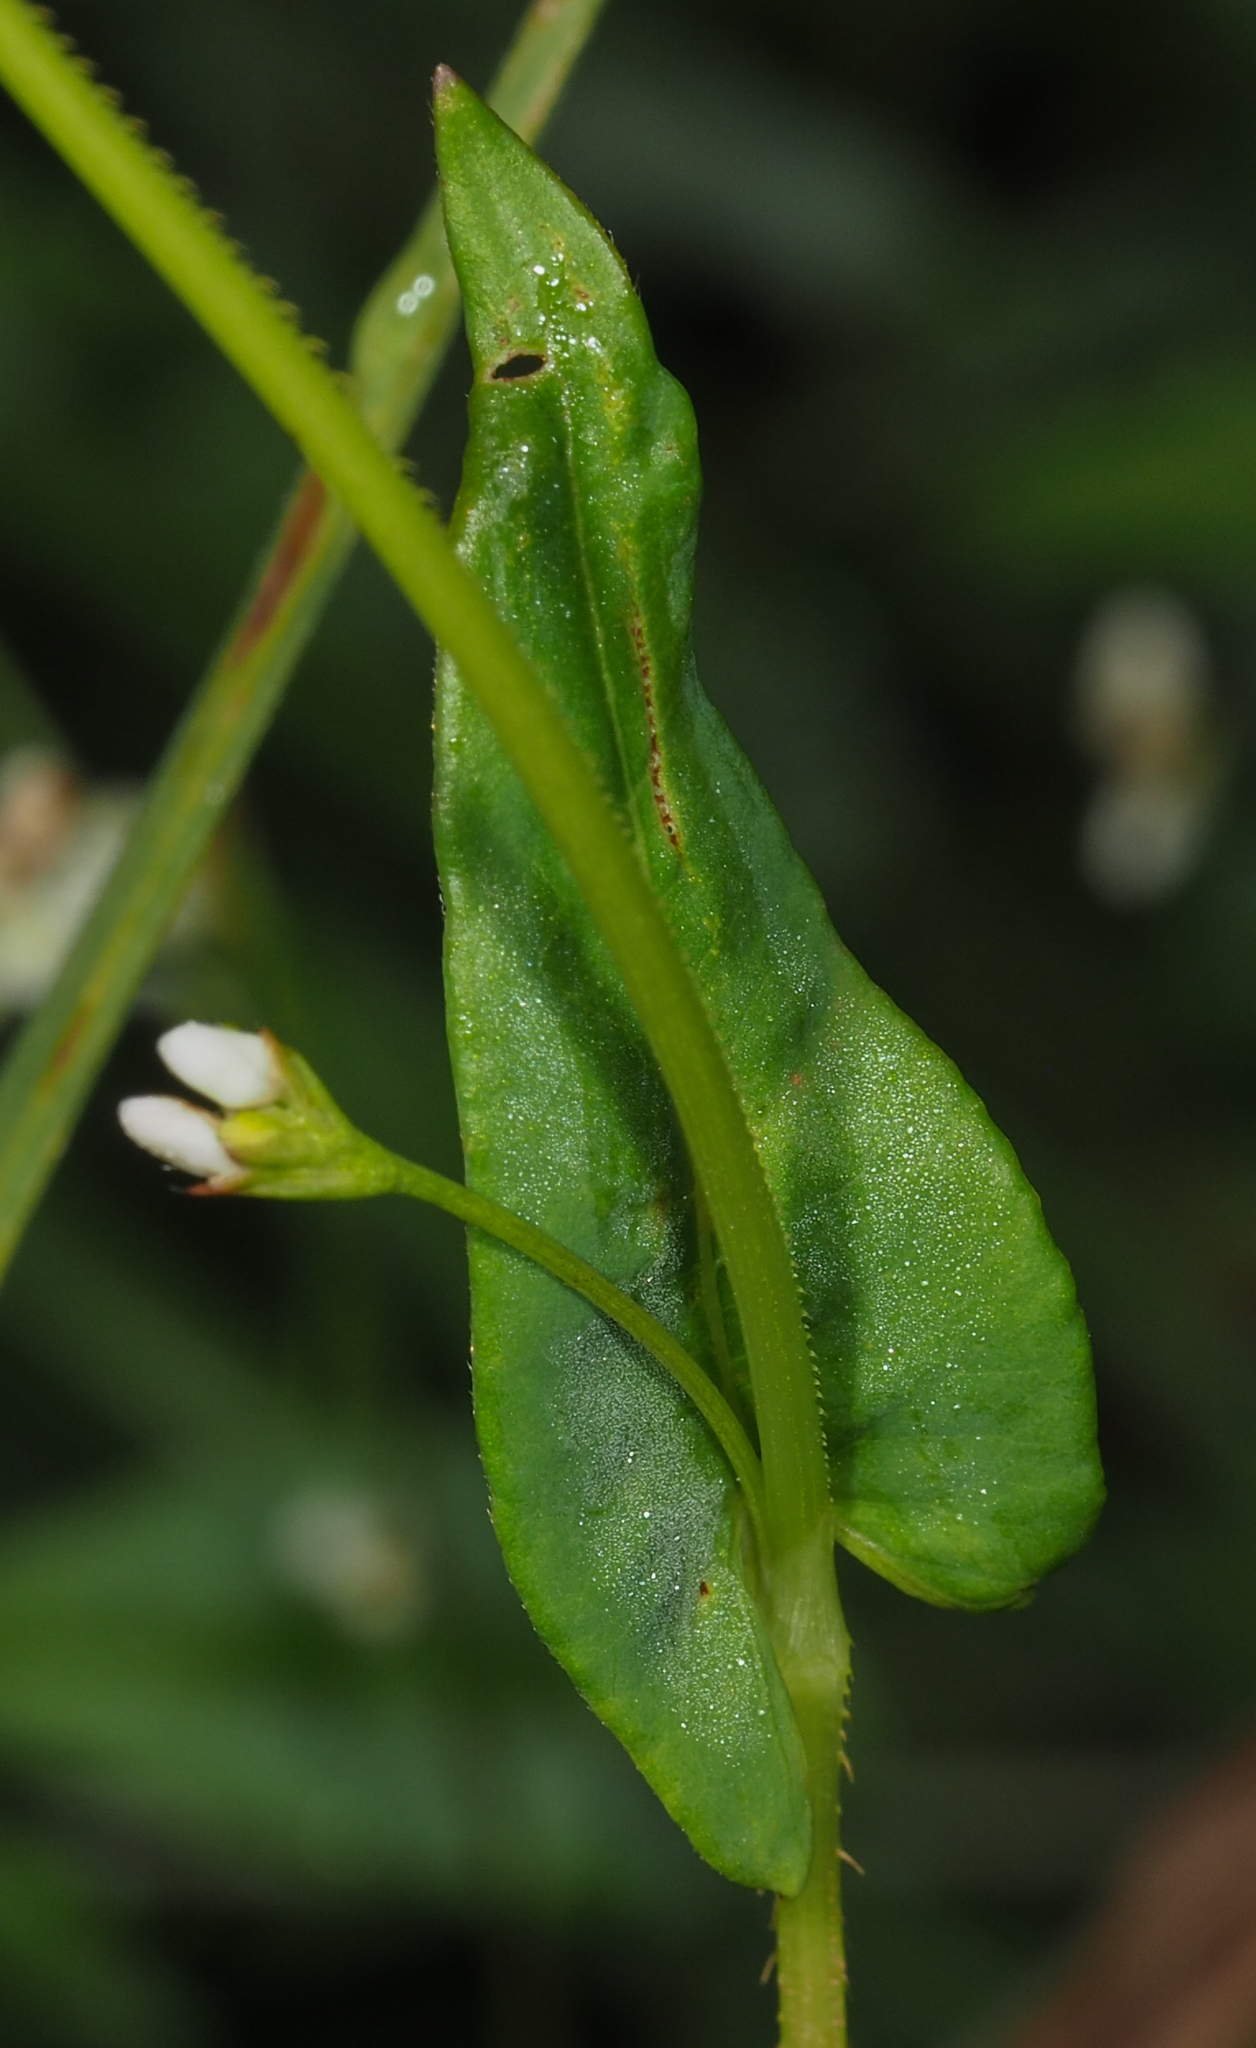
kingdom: Plantae
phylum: Tracheophyta
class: Magnoliopsida
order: Caryophyllales
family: Polygonaceae
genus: Persicaria
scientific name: Persicaria sagittata
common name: American tearthumb
